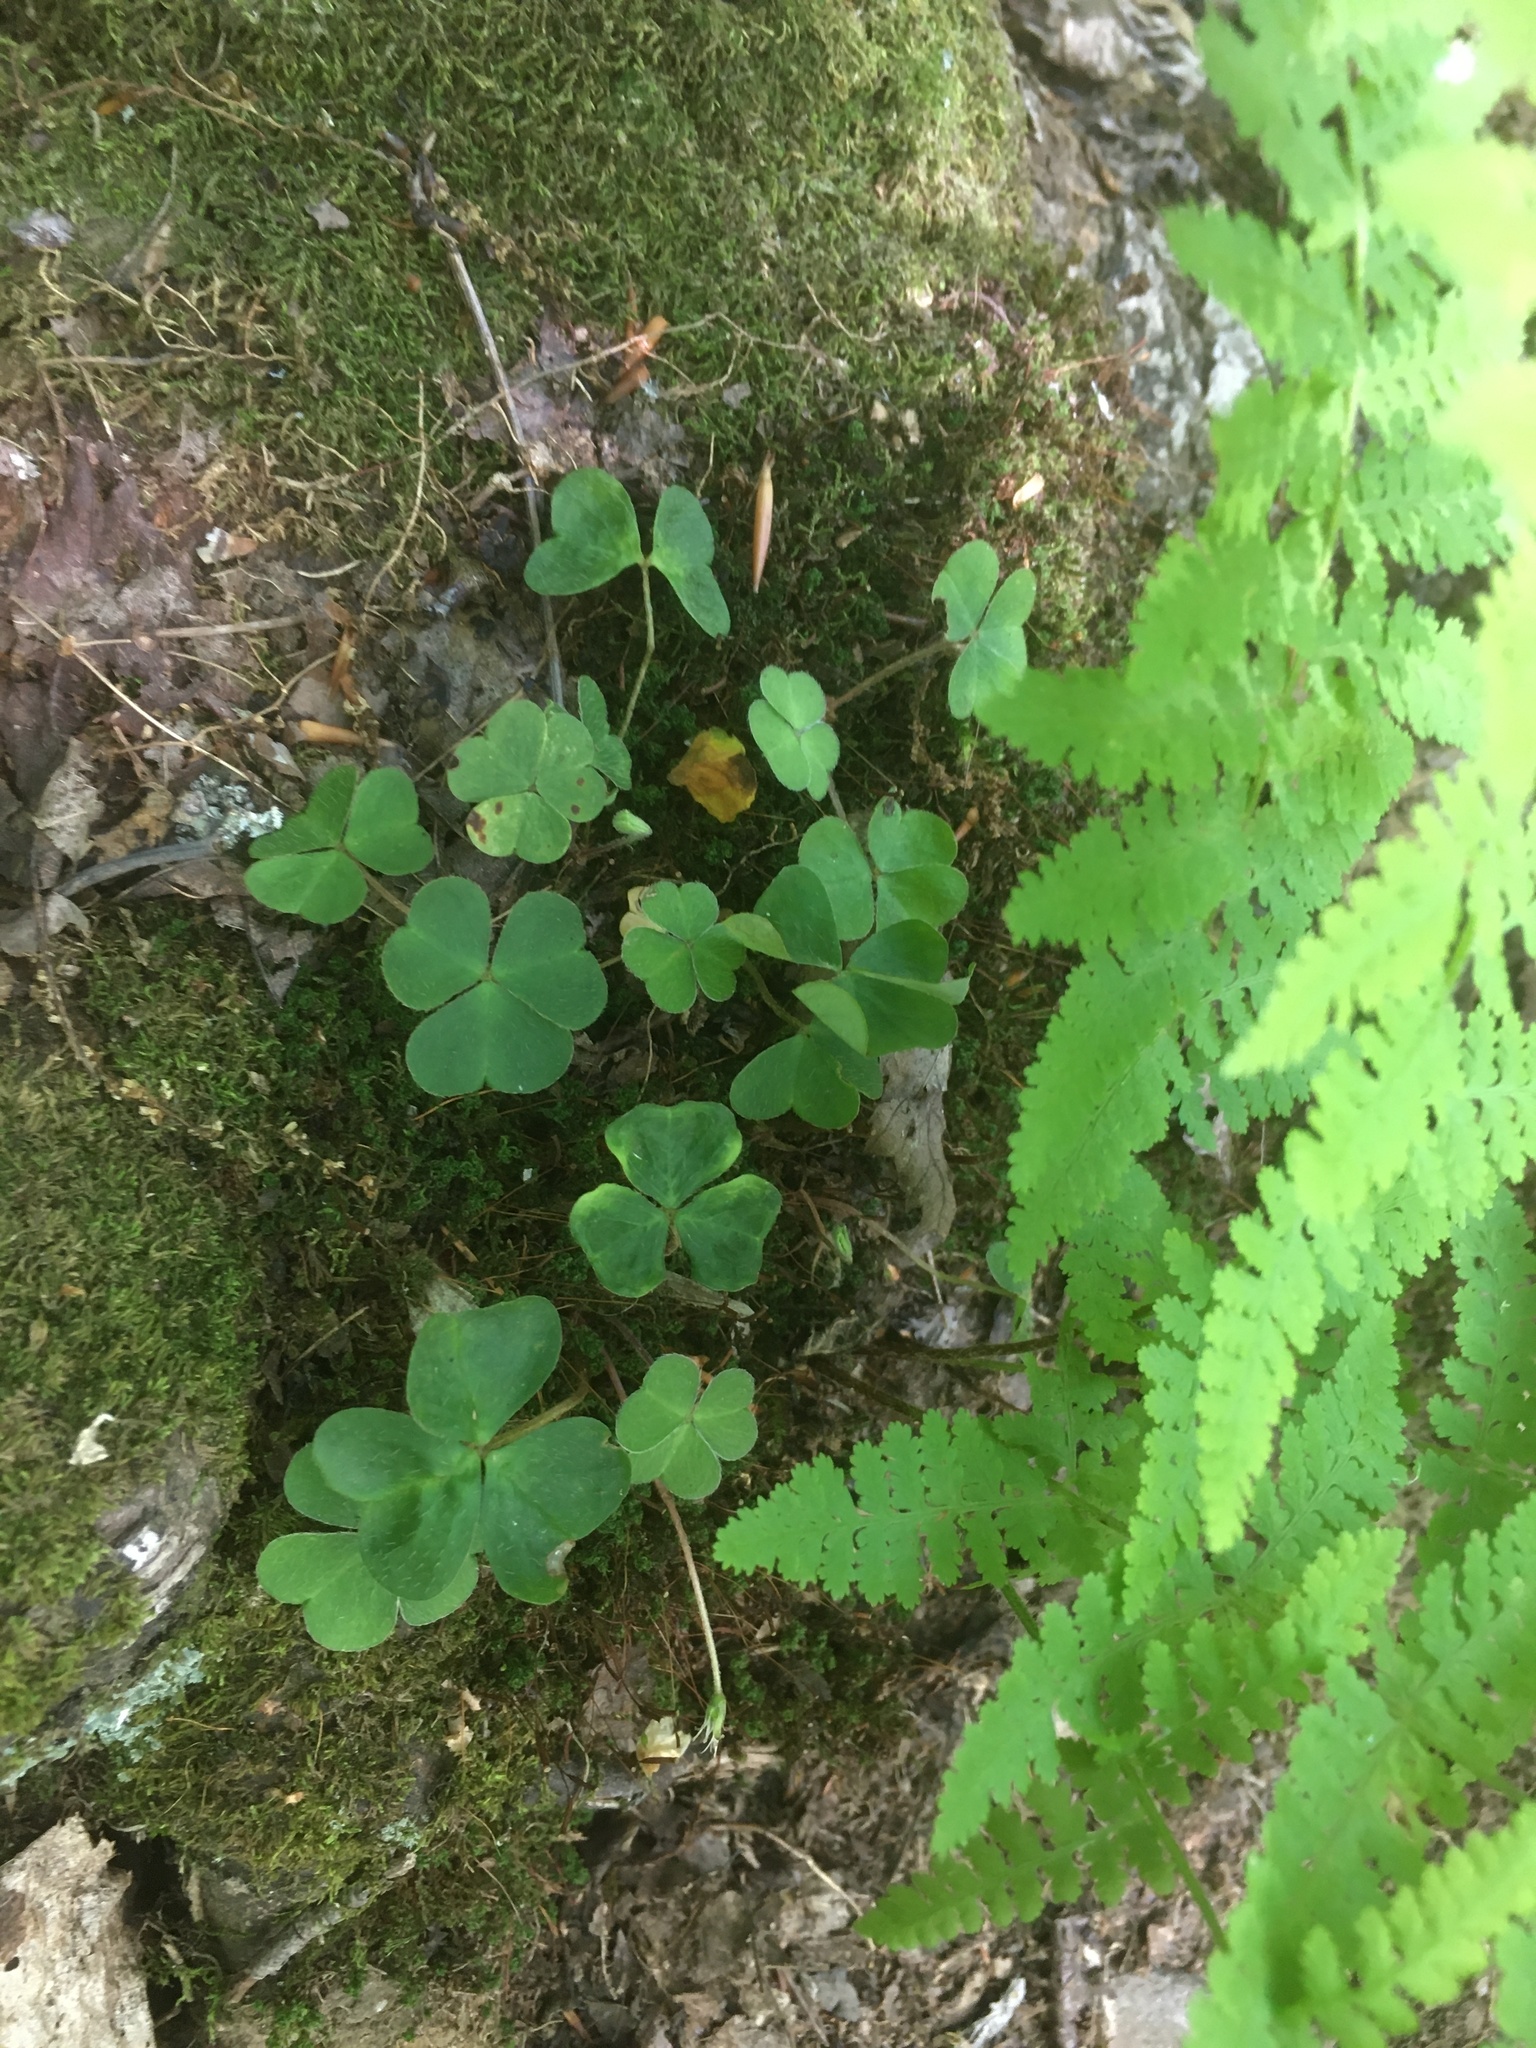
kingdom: Plantae
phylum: Tracheophyta
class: Magnoliopsida
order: Oxalidales
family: Oxalidaceae
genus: Oxalis
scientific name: Oxalis montana
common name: American wood-sorrel
